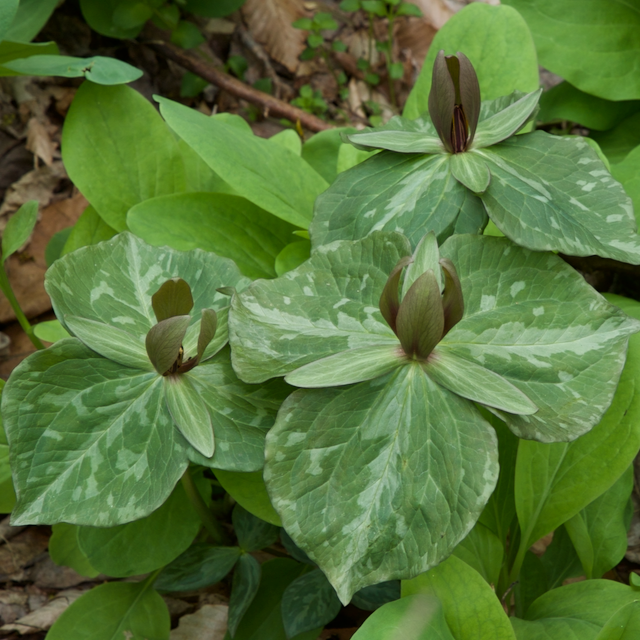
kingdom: Plantae
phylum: Tracheophyta
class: Liliopsida
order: Liliales
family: Melanthiaceae
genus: Trillium
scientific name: Trillium cuneatum
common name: Cuneate trillium
